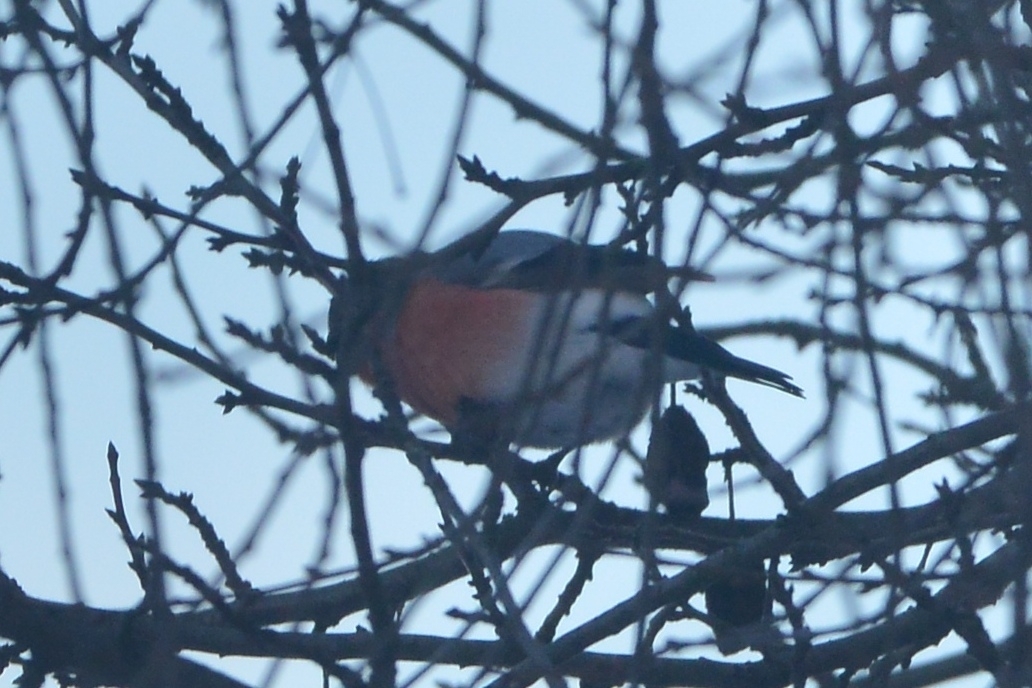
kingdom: Animalia
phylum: Chordata
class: Aves
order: Passeriformes
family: Fringillidae
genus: Pyrrhula
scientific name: Pyrrhula pyrrhula
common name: Eurasian bullfinch
